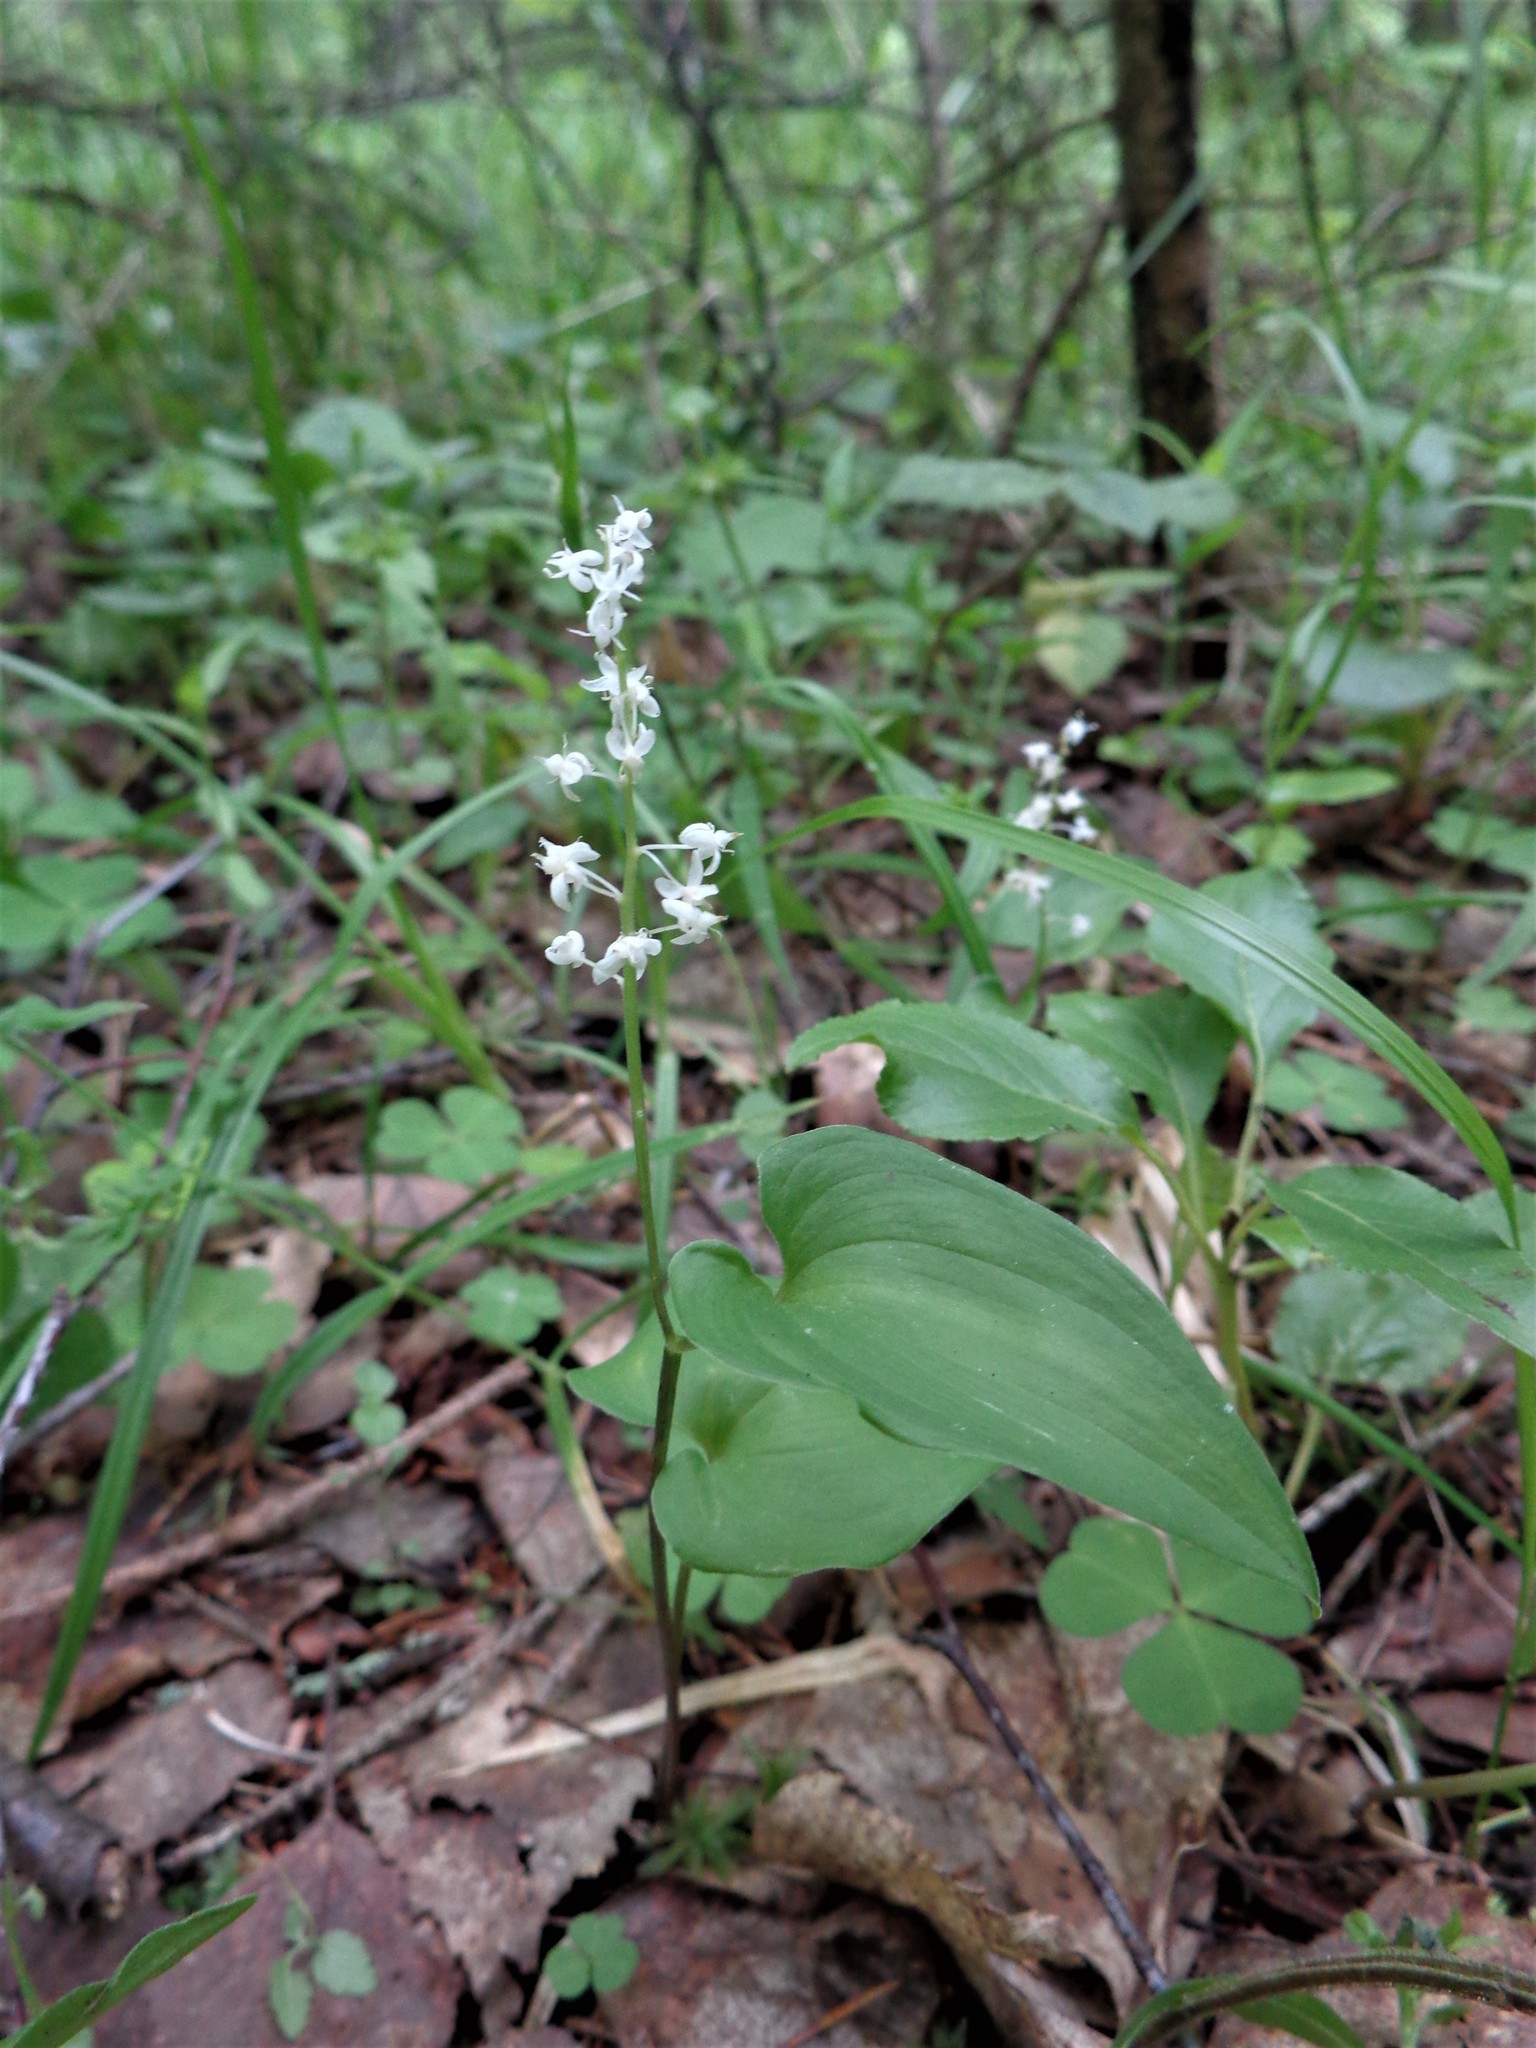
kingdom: Plantae
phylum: Tracheophyta
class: Liliopsida
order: Asparagales
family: Asparagaceae
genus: Maianthemum
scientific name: Maianthemum bifolium
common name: May lily
